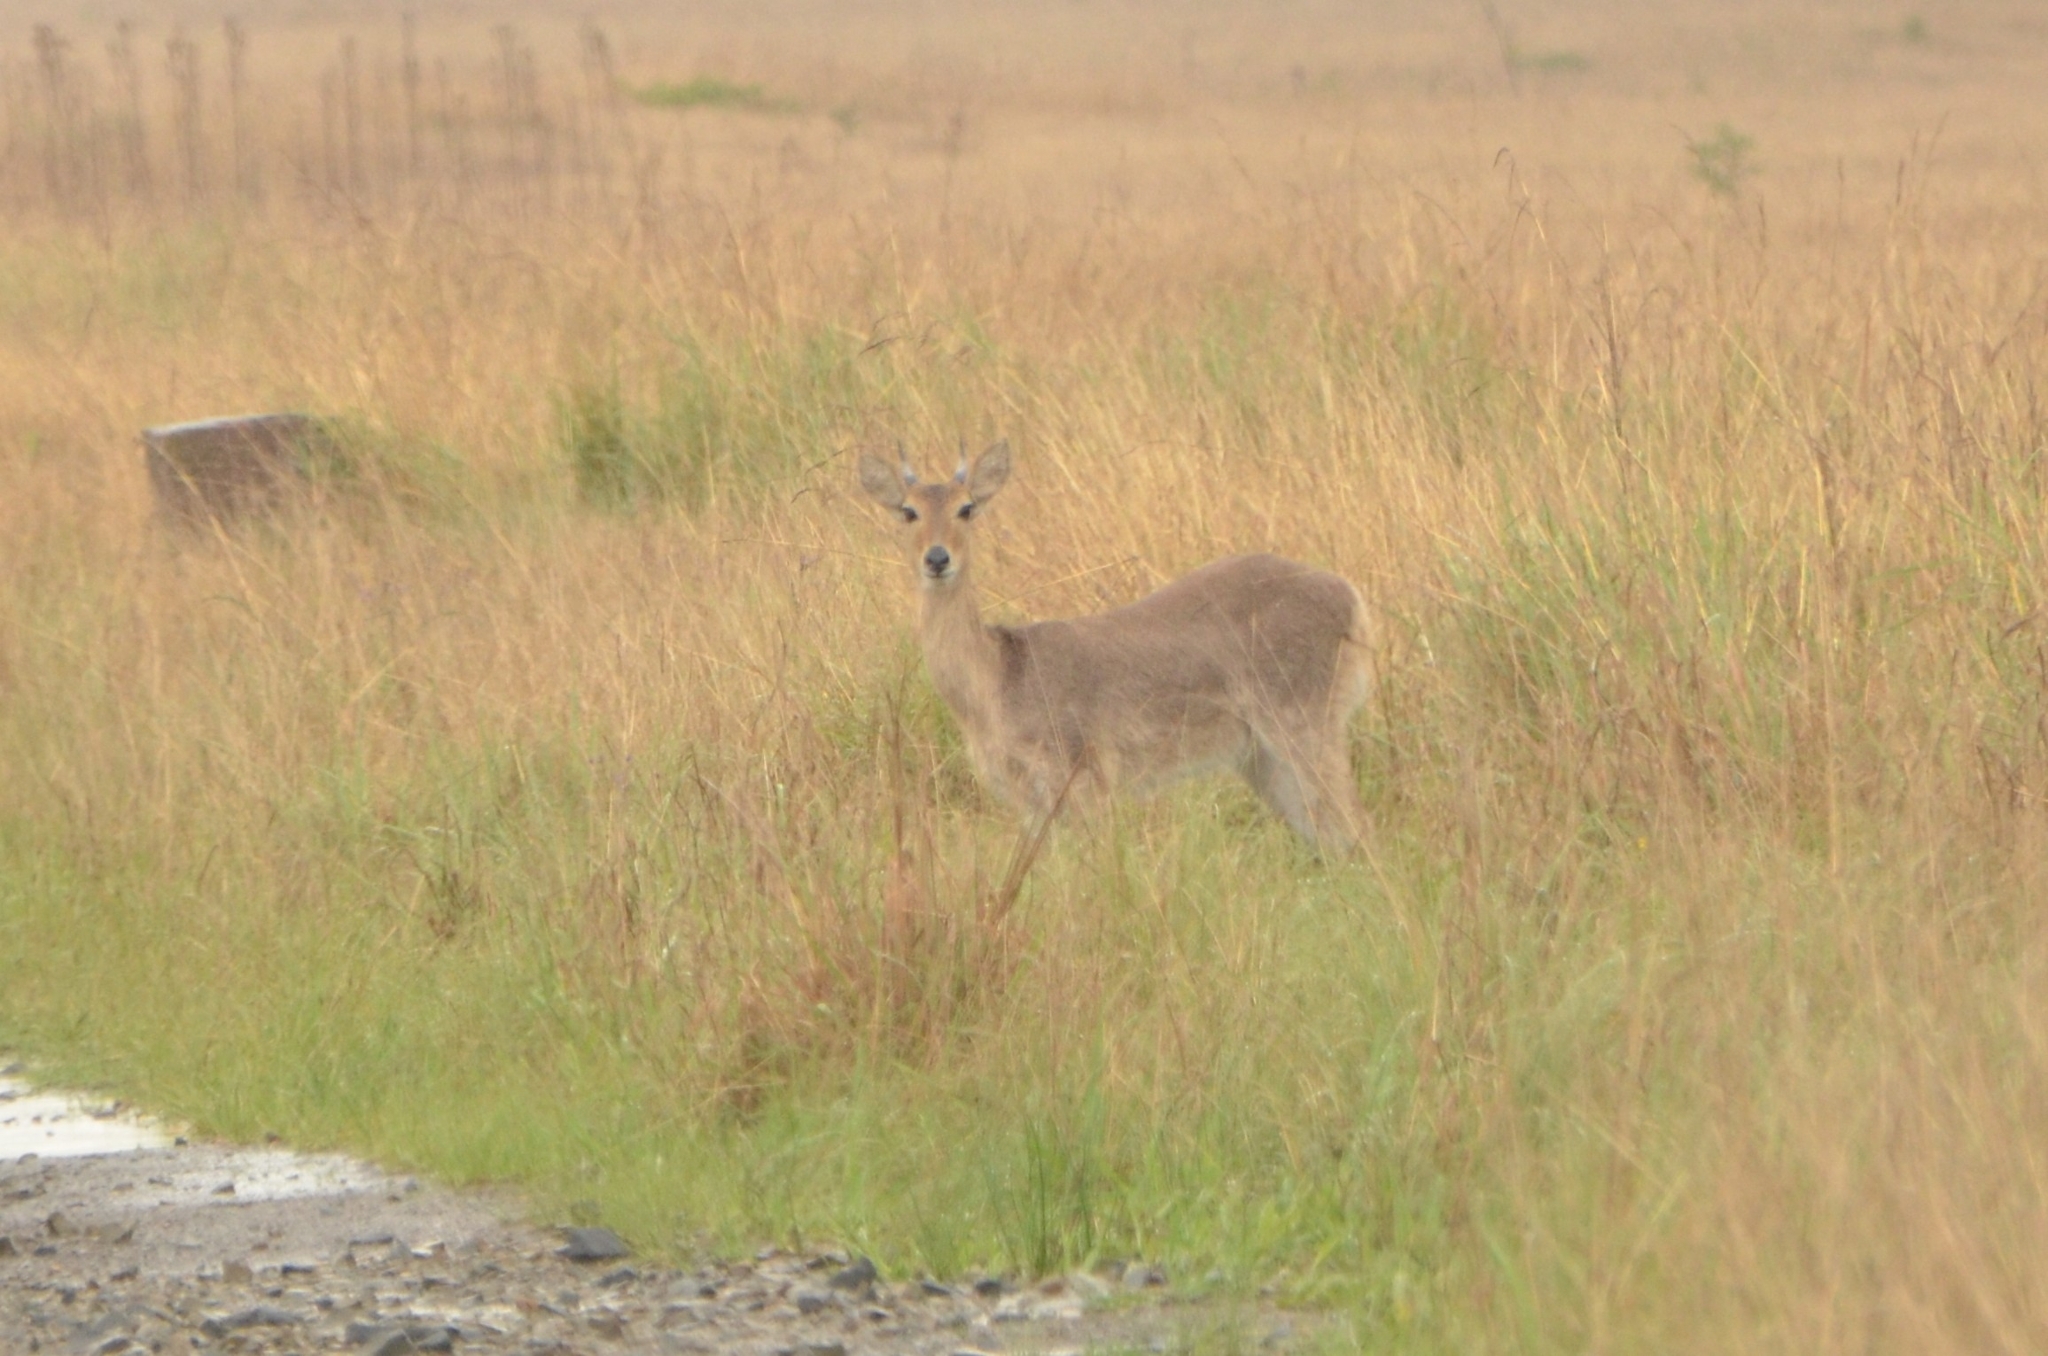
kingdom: Animalia
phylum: Chordata
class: Mammalia
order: Artiodactyla
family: Bovidae
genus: Redunca
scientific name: Redunca arundinum
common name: Southern reedbuck
